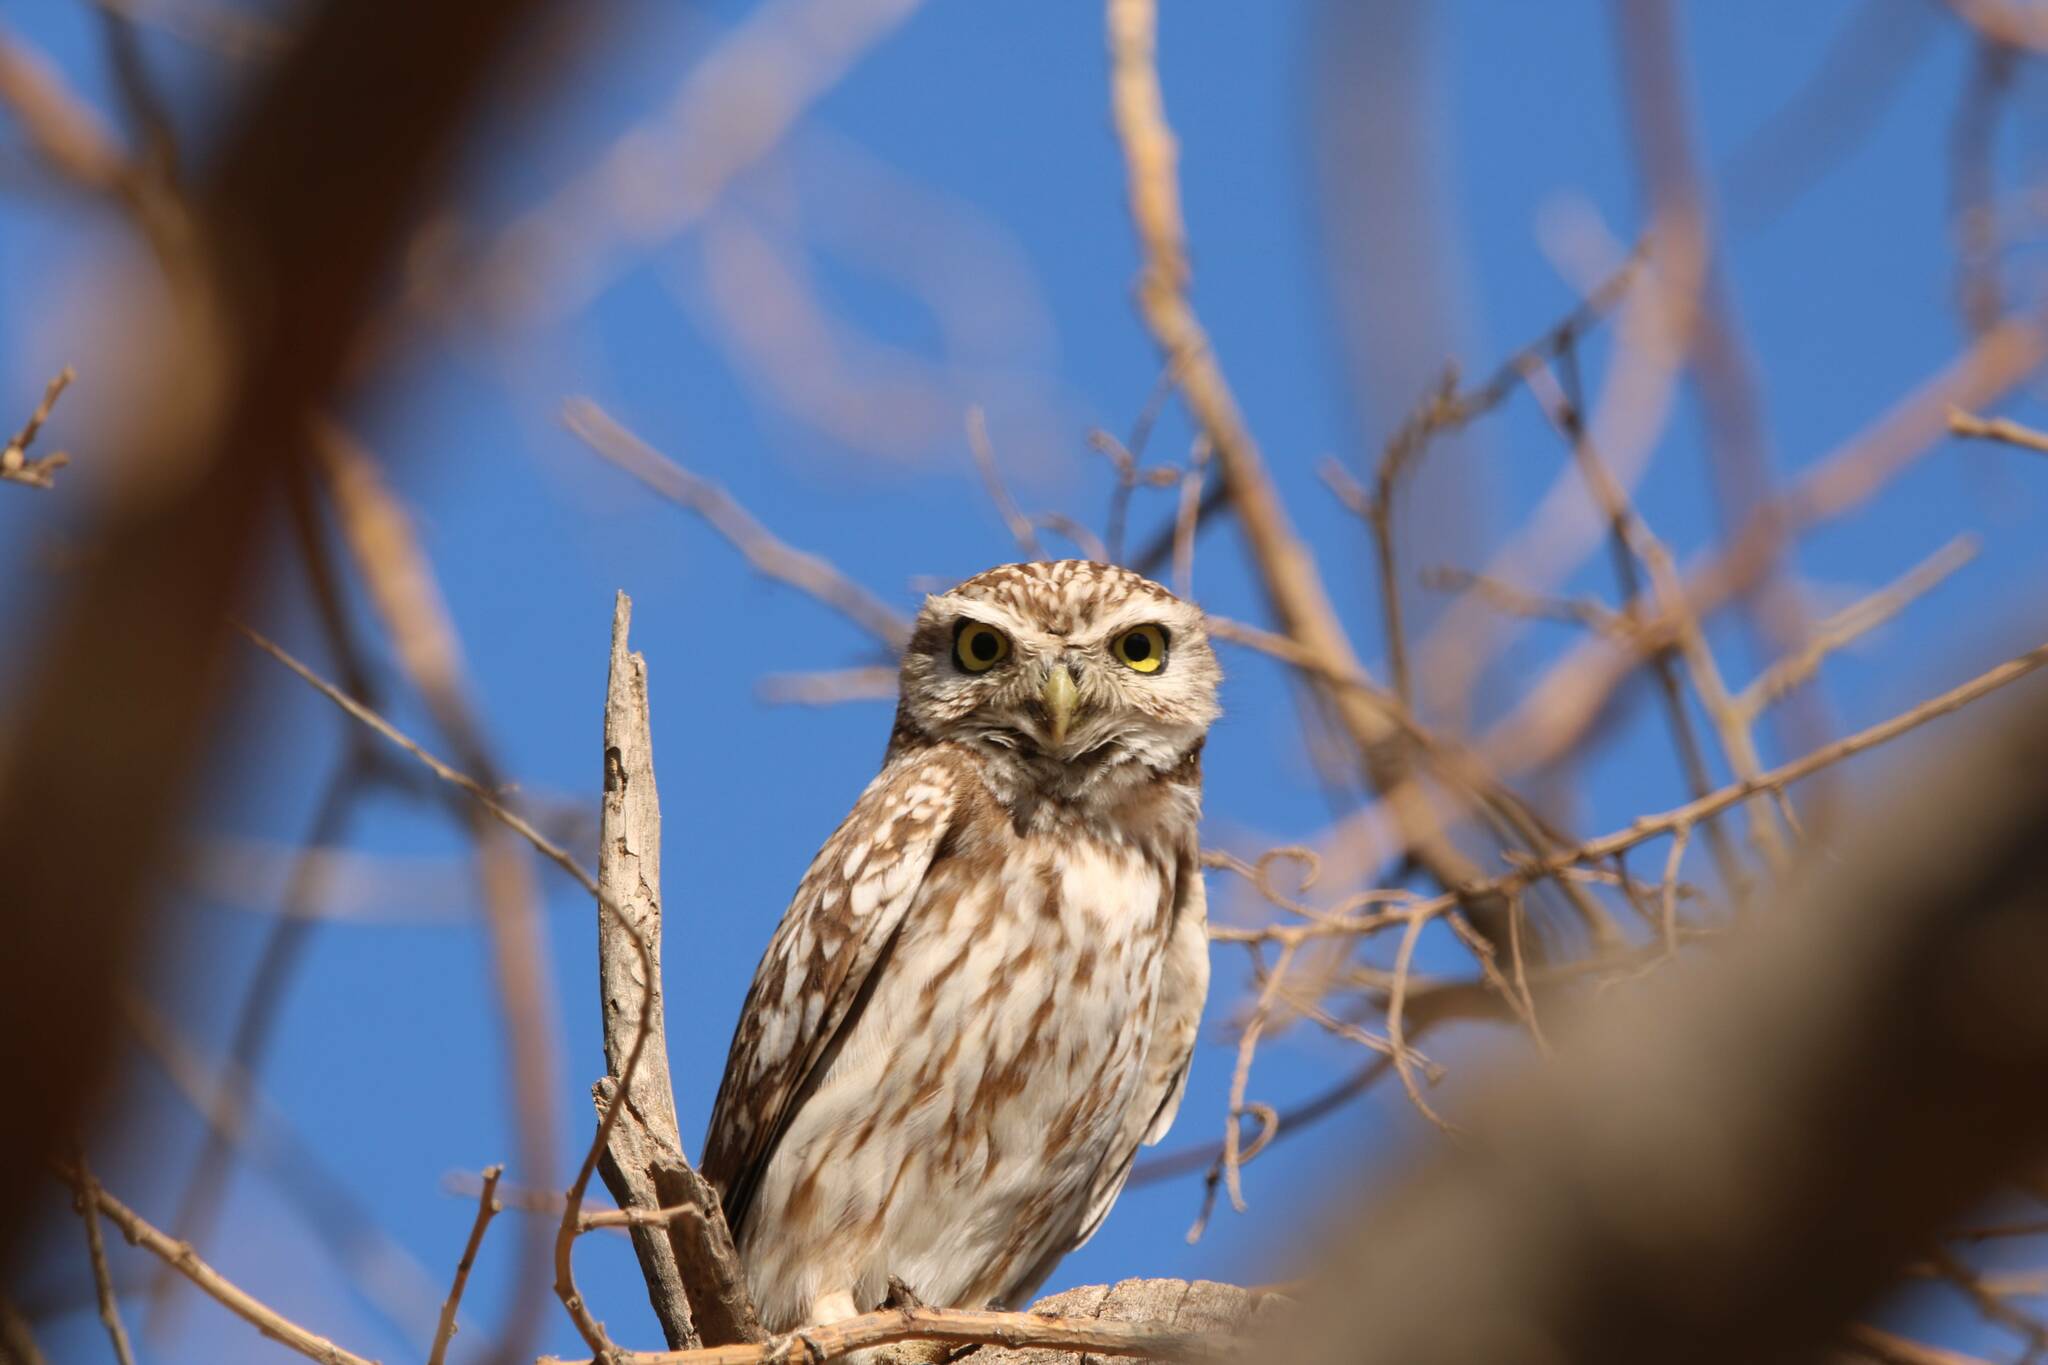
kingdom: Animalia
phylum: Chordata
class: Aves
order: Strigiformes
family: Strigidae
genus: Athene
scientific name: Athene noctua
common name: Little owl
